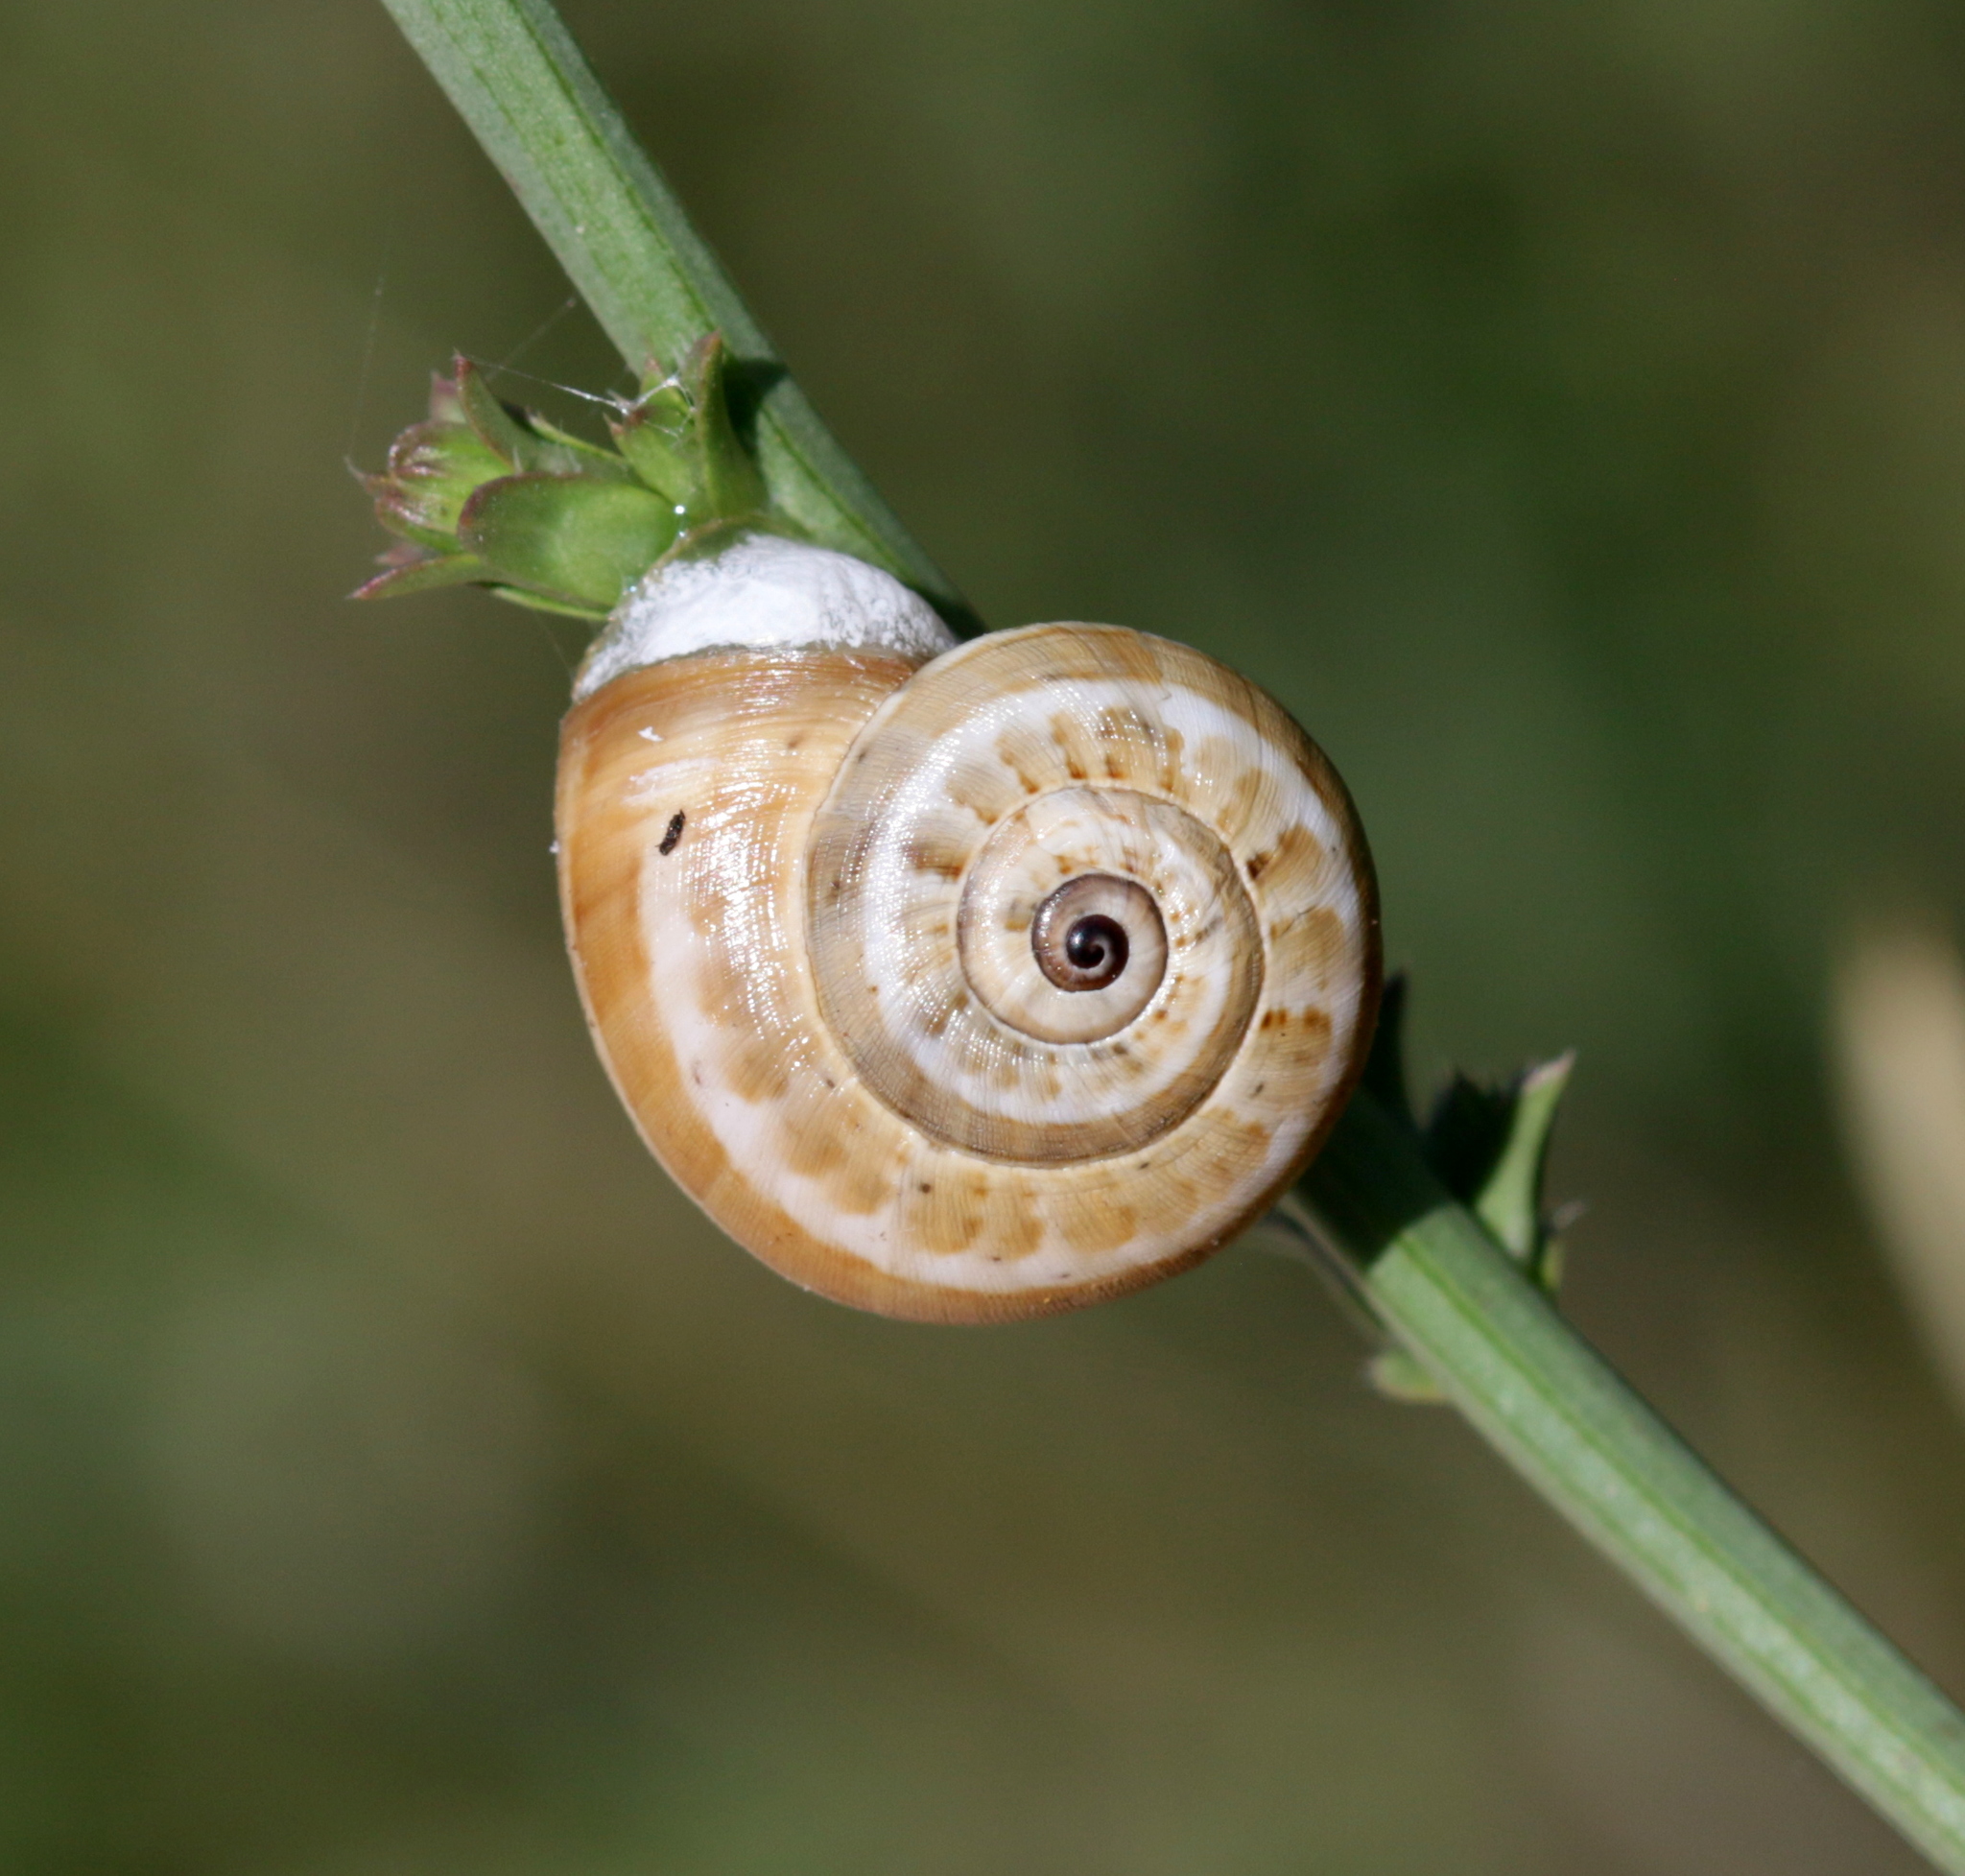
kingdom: Animalia
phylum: Mollusca
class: Gastropoda
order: Stylommatophora
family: Helicidae
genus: Theba
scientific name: Theba pisana
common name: White snail
